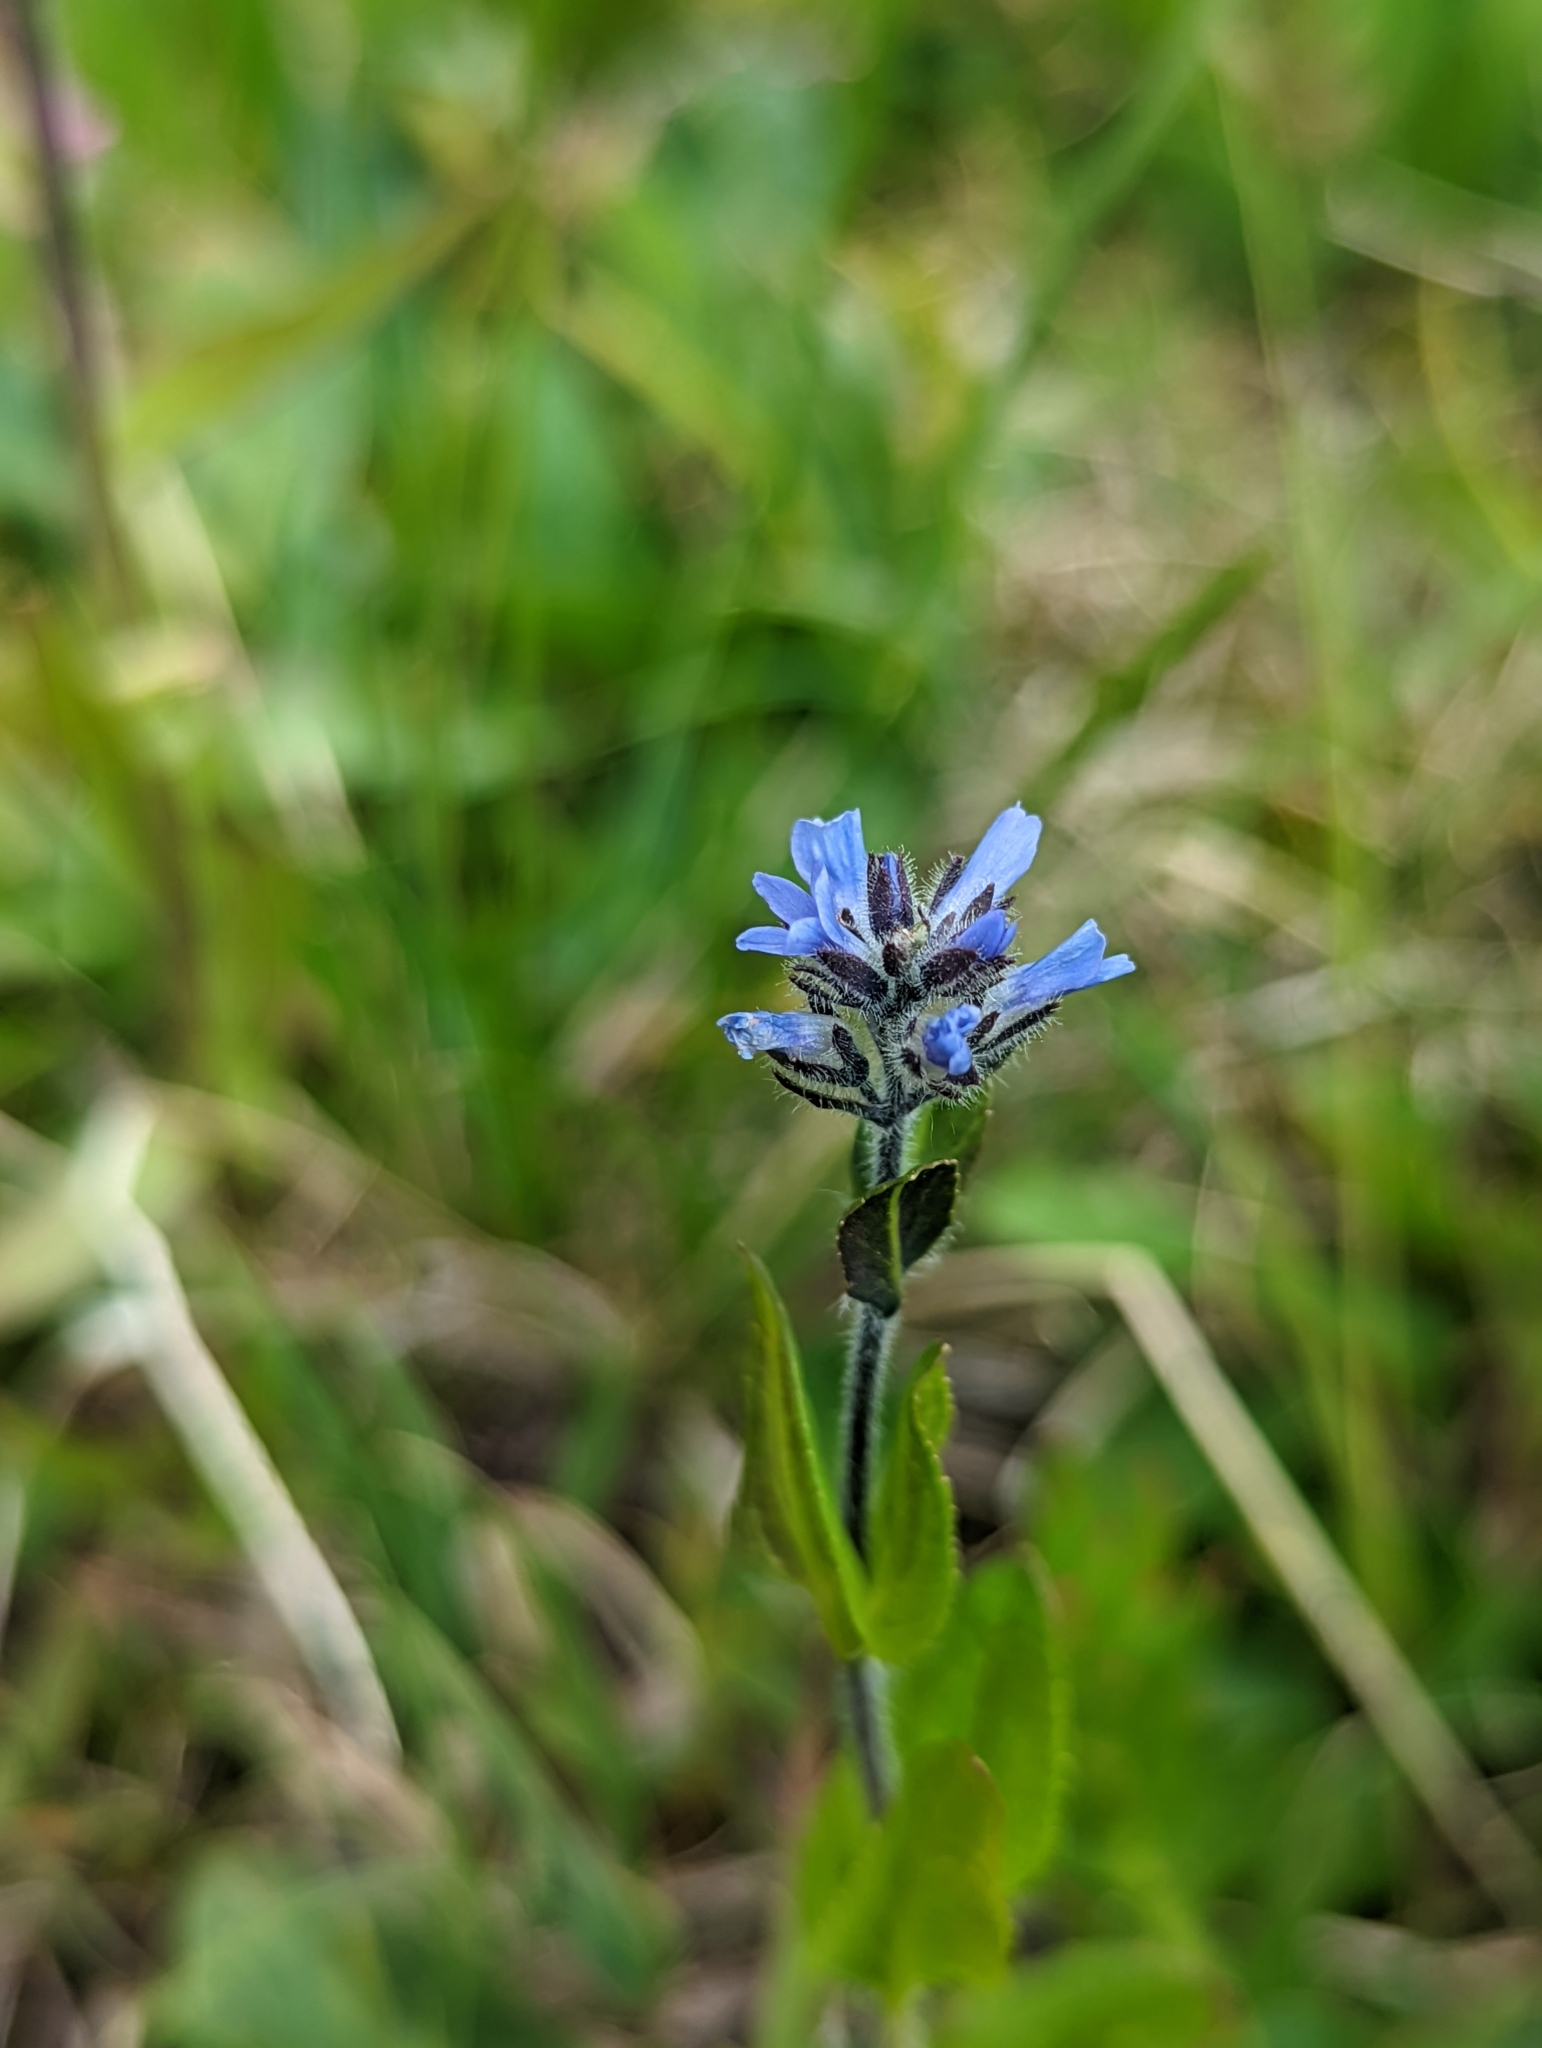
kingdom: Plantae
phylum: Tracheophyta
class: Magnoliopsida
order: Lamiales
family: Plantaginaceae
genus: Veronica
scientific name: Veronica wormskjoldii
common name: American alpine speedwell
